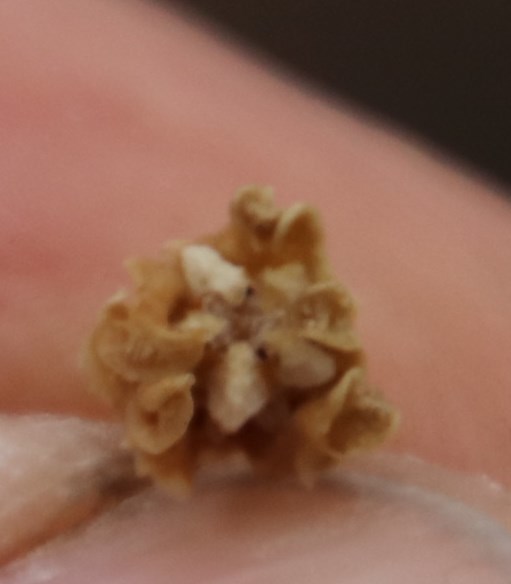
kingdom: Plantae
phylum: Tracheophyta
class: Magnoliopsida
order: Gentianales
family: Apocynaceae
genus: Cynanchum
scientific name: Cynanchum viminale
